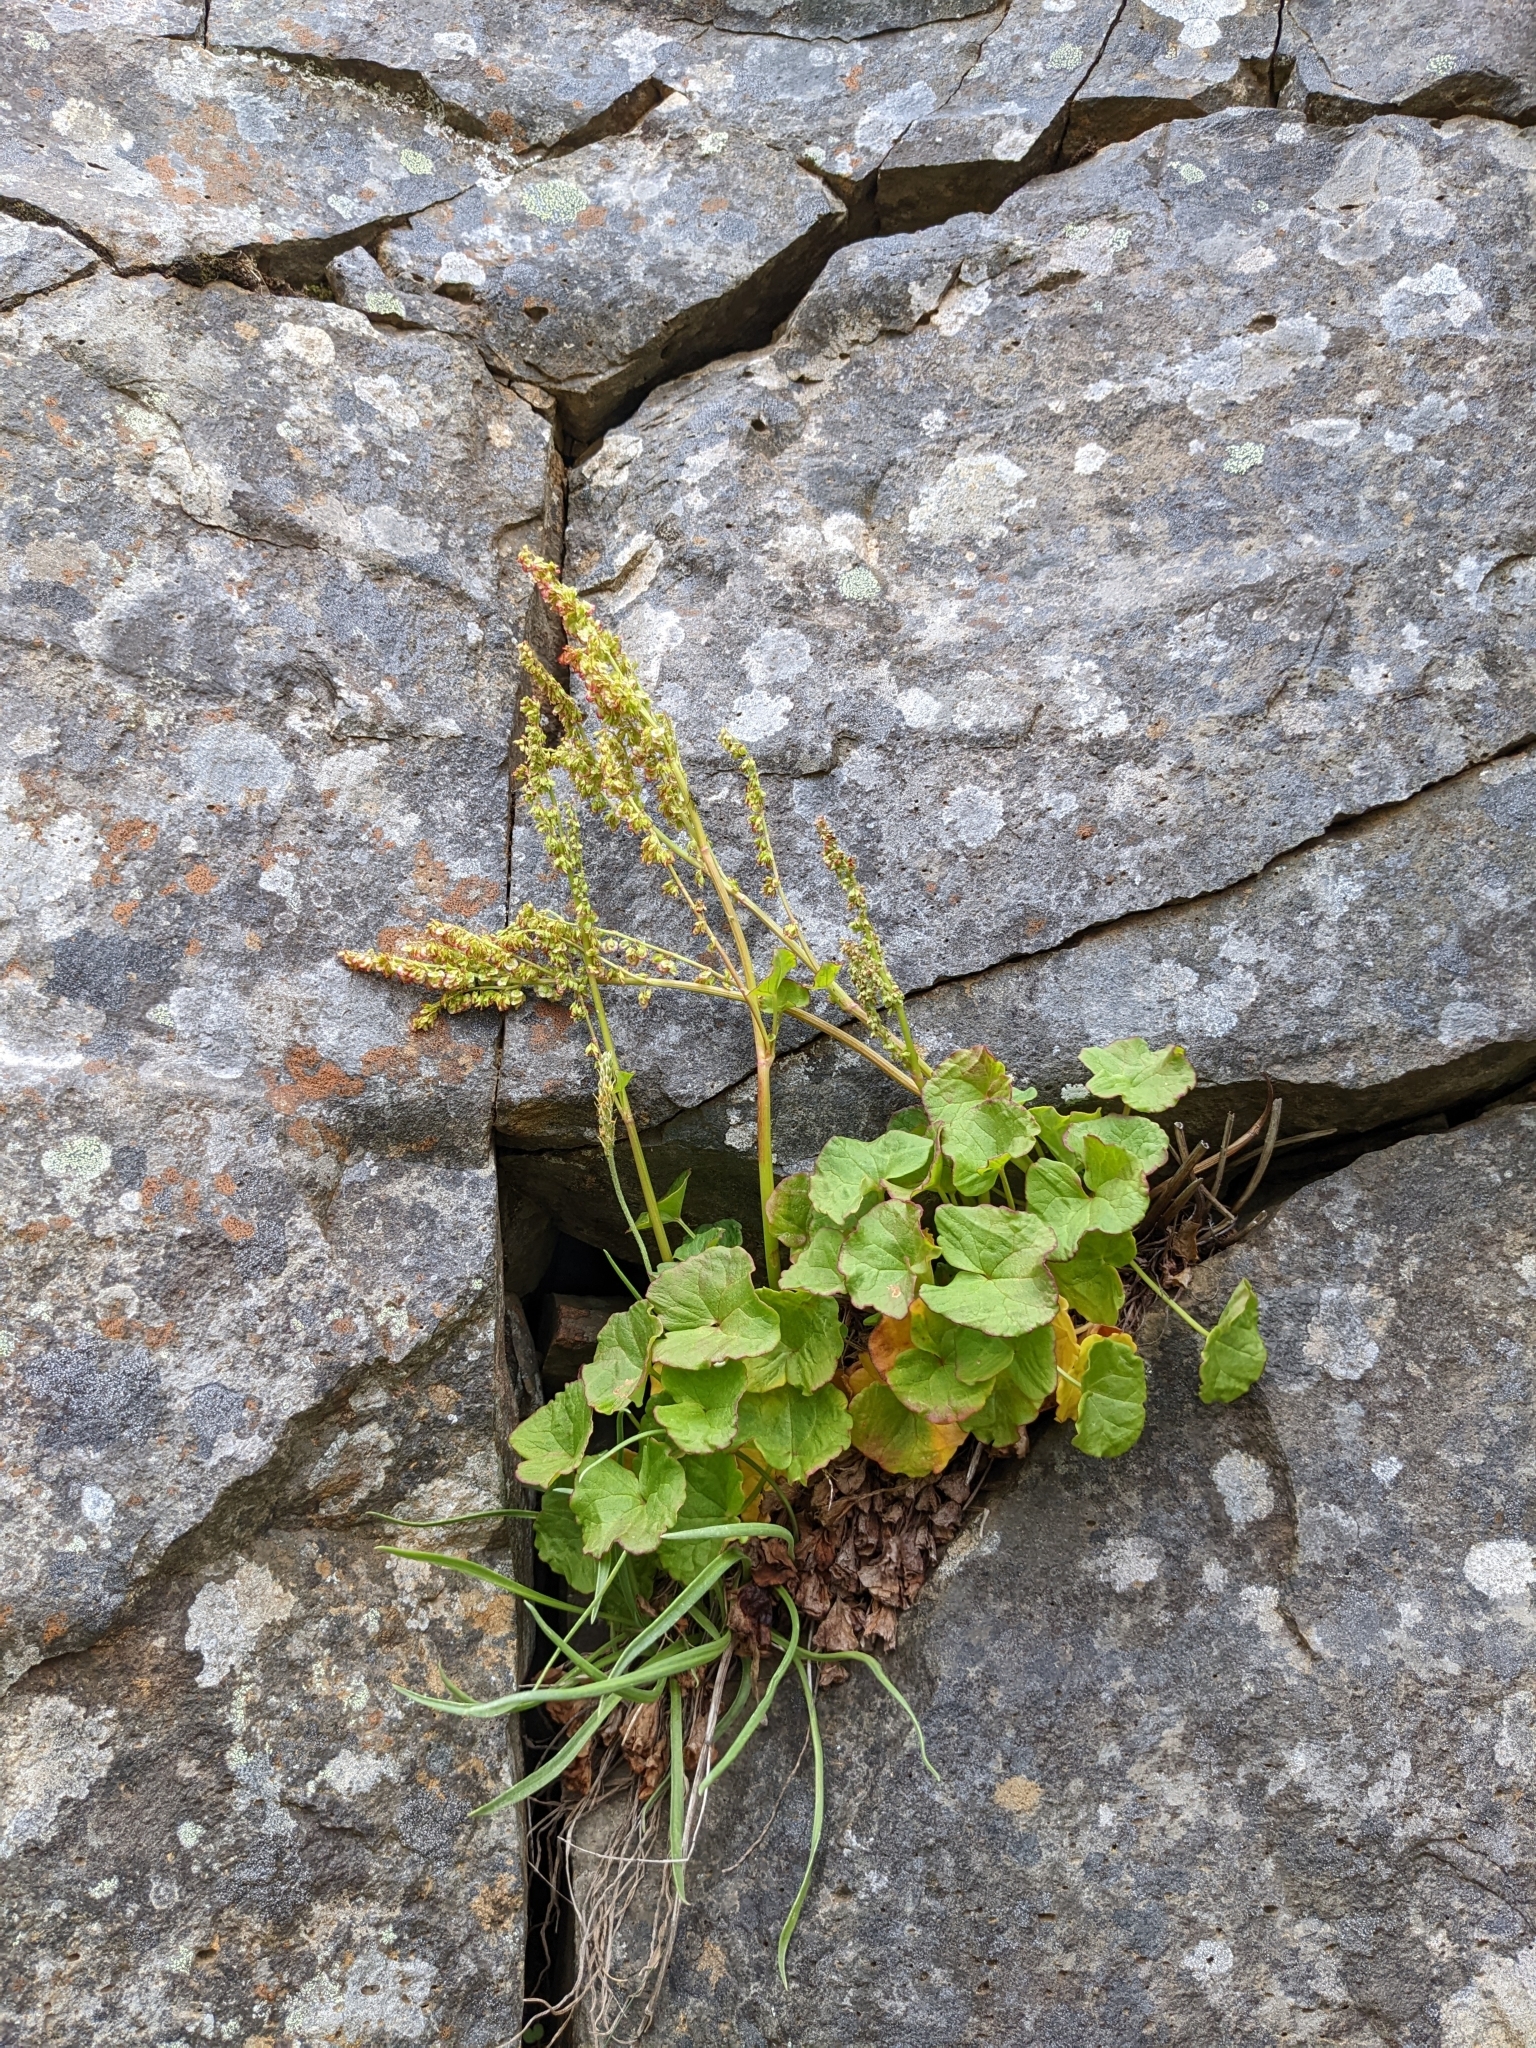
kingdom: Plantae
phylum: Tracheophyta
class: Magnoliopsida
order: Caryophyllales
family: Polygonaceae
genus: Oxyria
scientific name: Oxyria digyna
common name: Alpine mountain-sorrel
